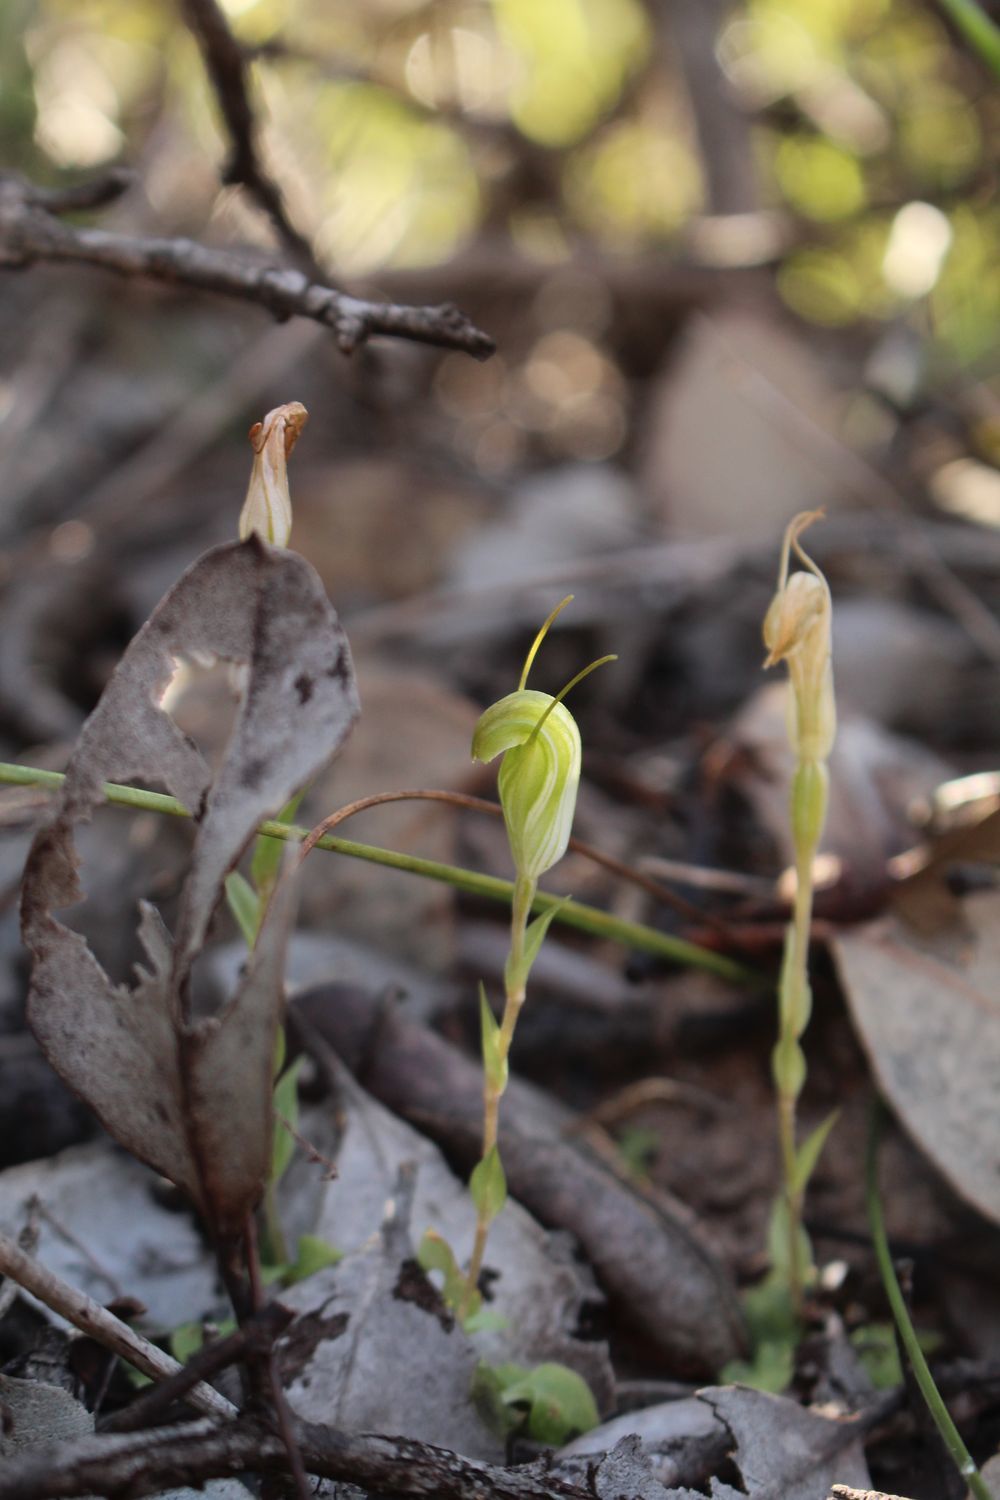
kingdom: Plantae
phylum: Tracheophyta
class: Liliopsida
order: Asparagales
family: Orchidaceae
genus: Pterostylis
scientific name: Pterostylis timothyi
